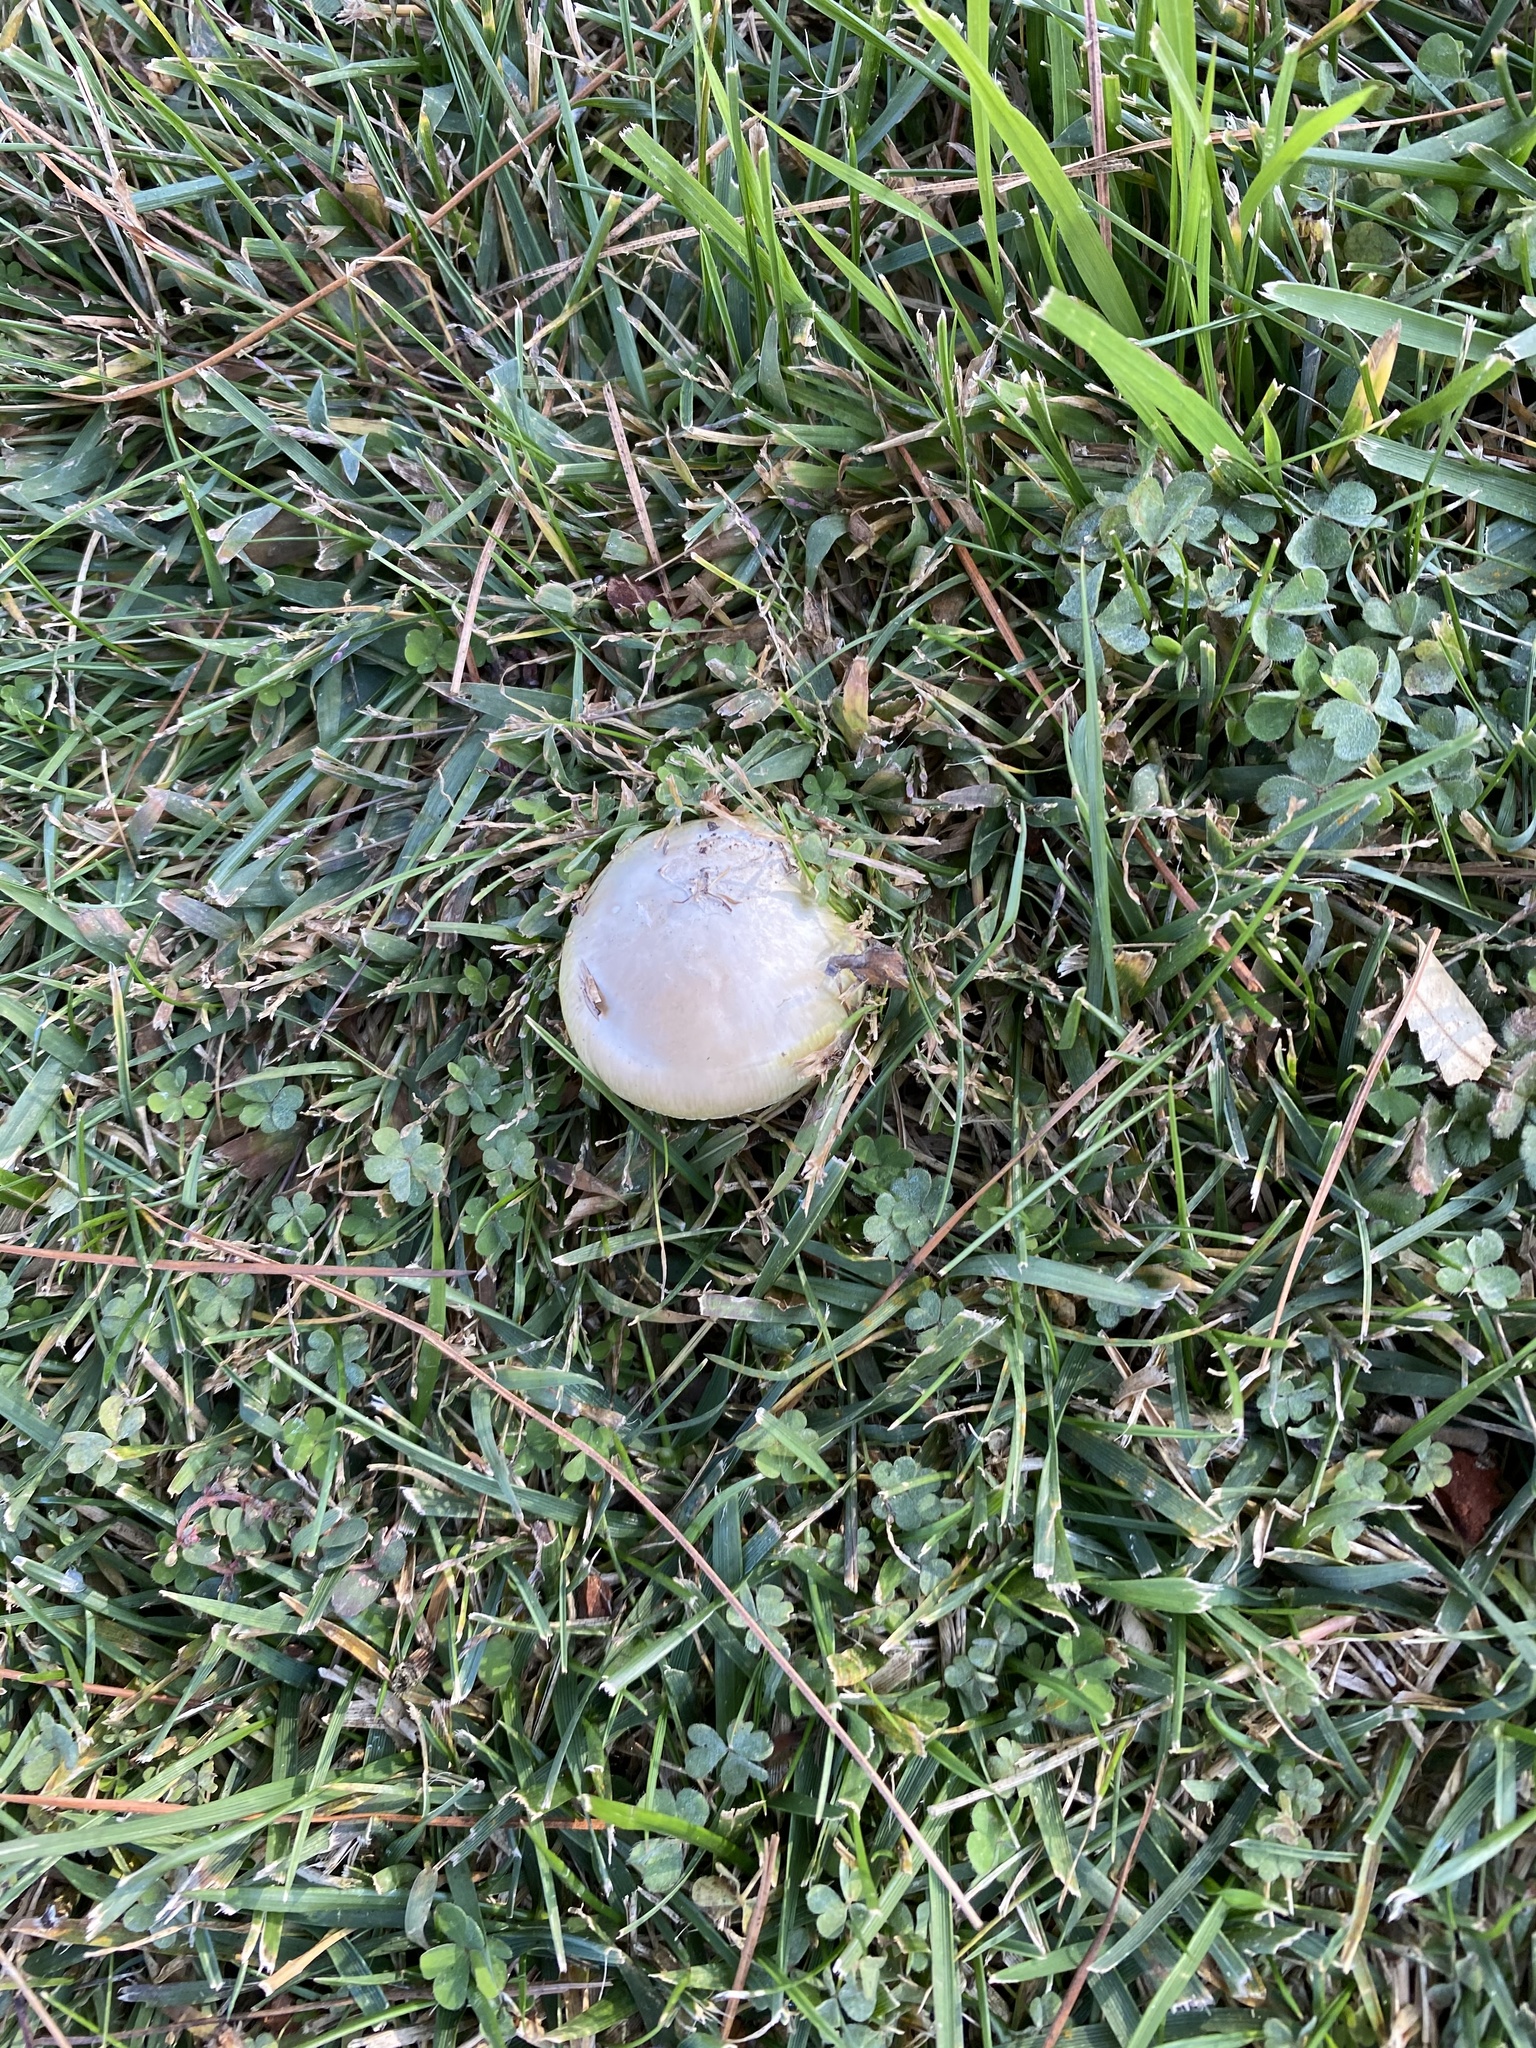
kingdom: Fungi
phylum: Basidiomycota
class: Agaricomycetes
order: Agaricales
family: Amanitaceae
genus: Amanita
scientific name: Amanita phalloides
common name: Death cap
